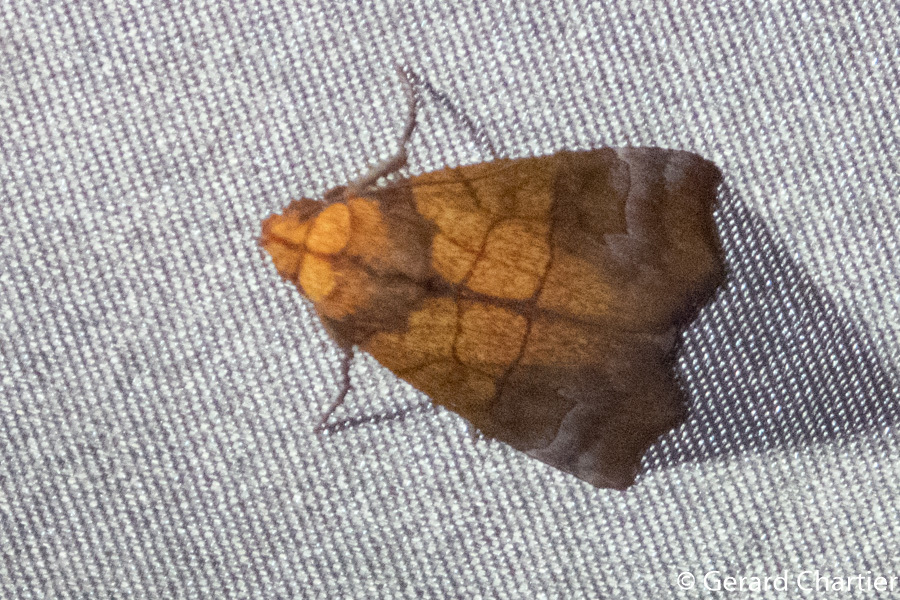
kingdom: Animalia
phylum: Arthropoda
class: Insecta
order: Lepidoptera
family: Erebidae
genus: Anomis
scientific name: Anomis scitipennis
